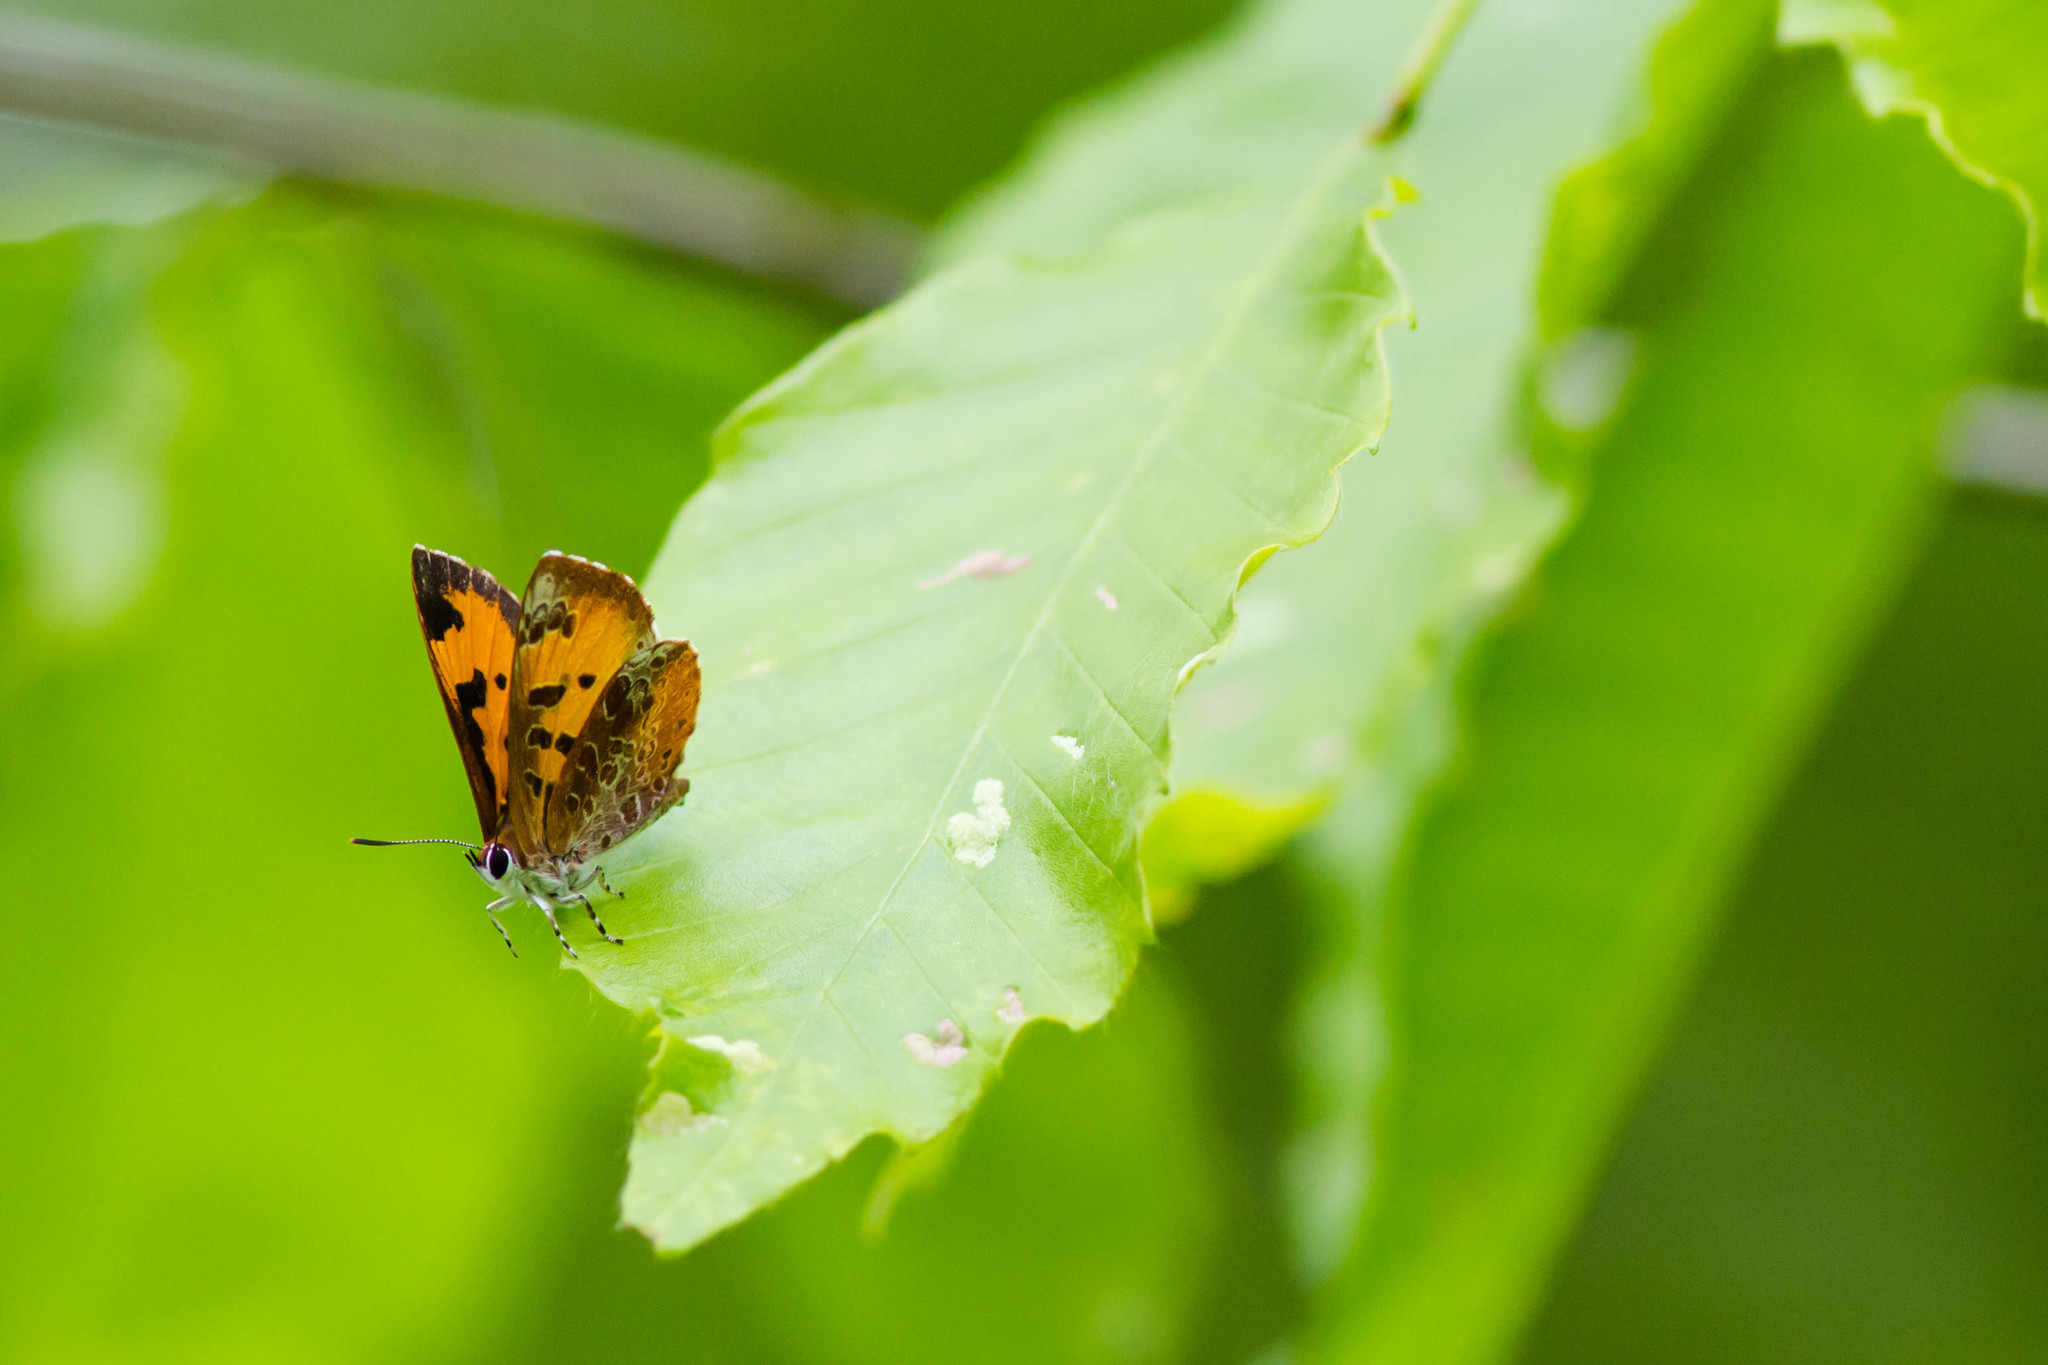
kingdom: Animalia
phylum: Arthropoda
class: Insecta
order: Lepidoptera
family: Lycaenidae
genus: Feniseca
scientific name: Feniseca tarquinius
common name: Harvester
